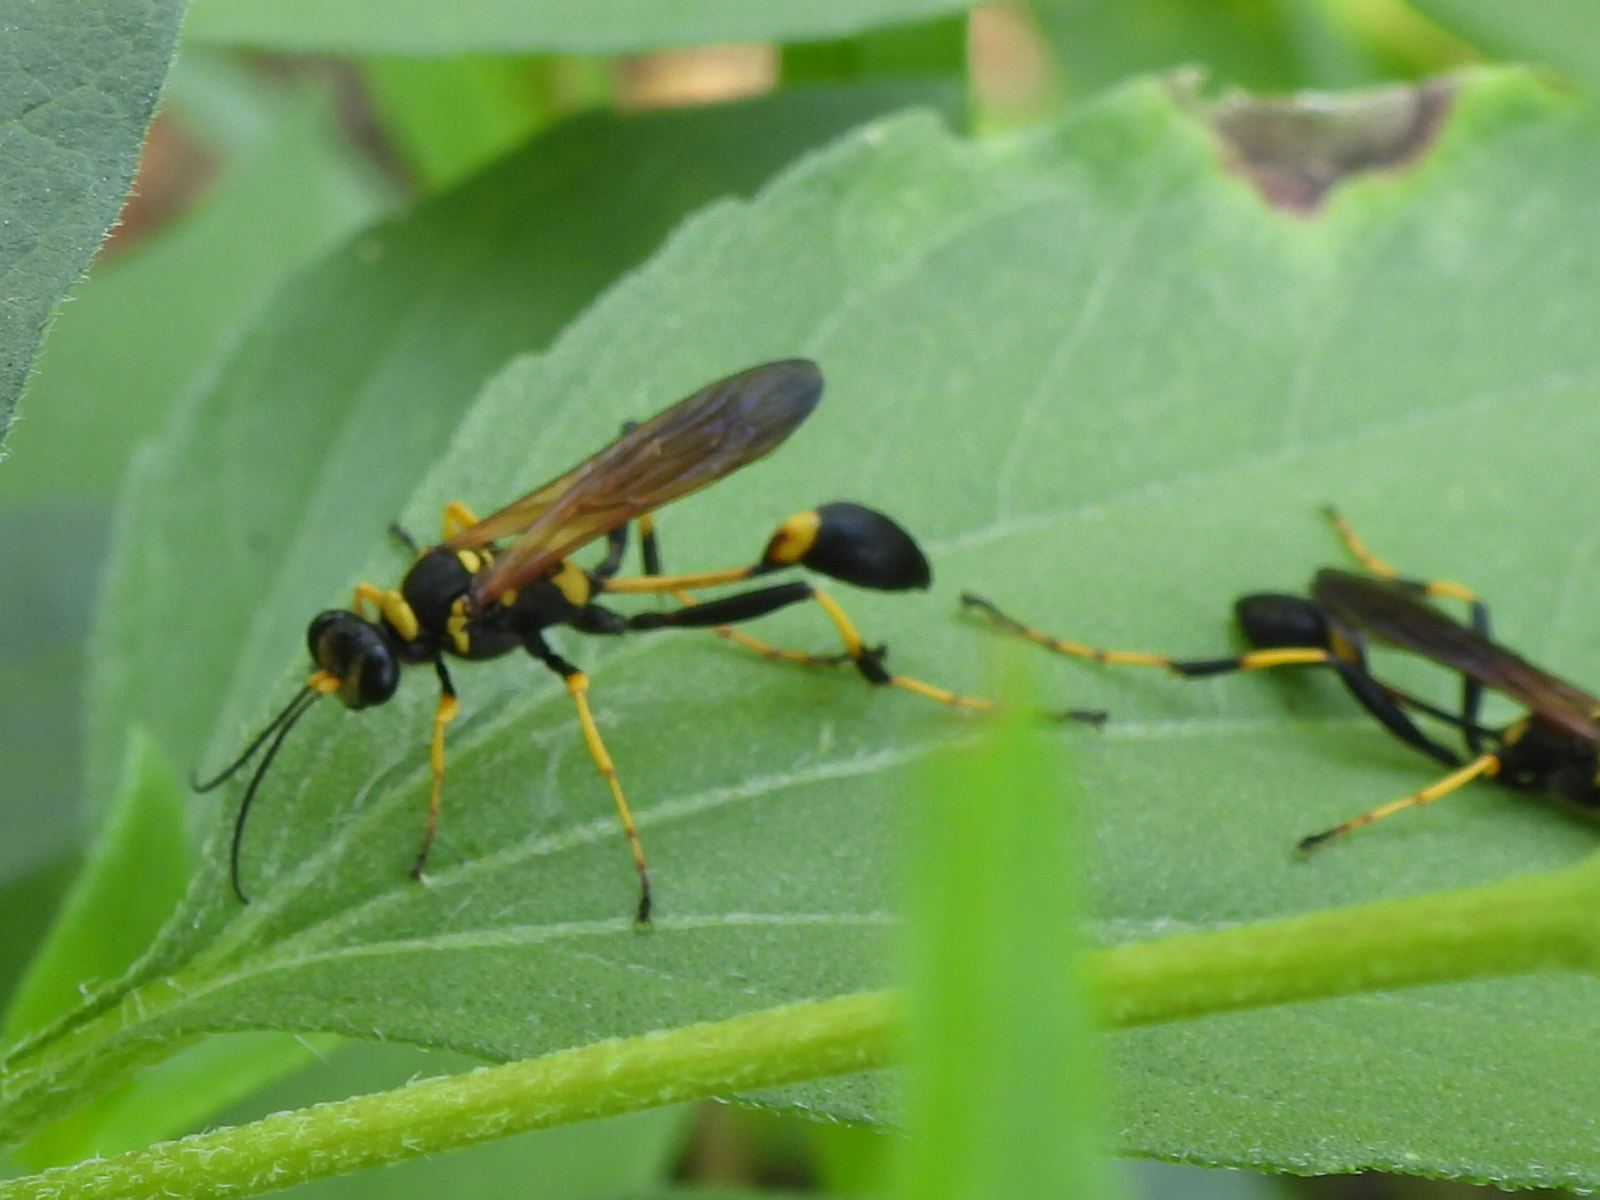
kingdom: Animalia
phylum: Arthropoda
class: Insecta
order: Hymenoptera
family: Sphecidae
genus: Sceliphron
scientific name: Sceliphron caementarium
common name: Mud dauber
